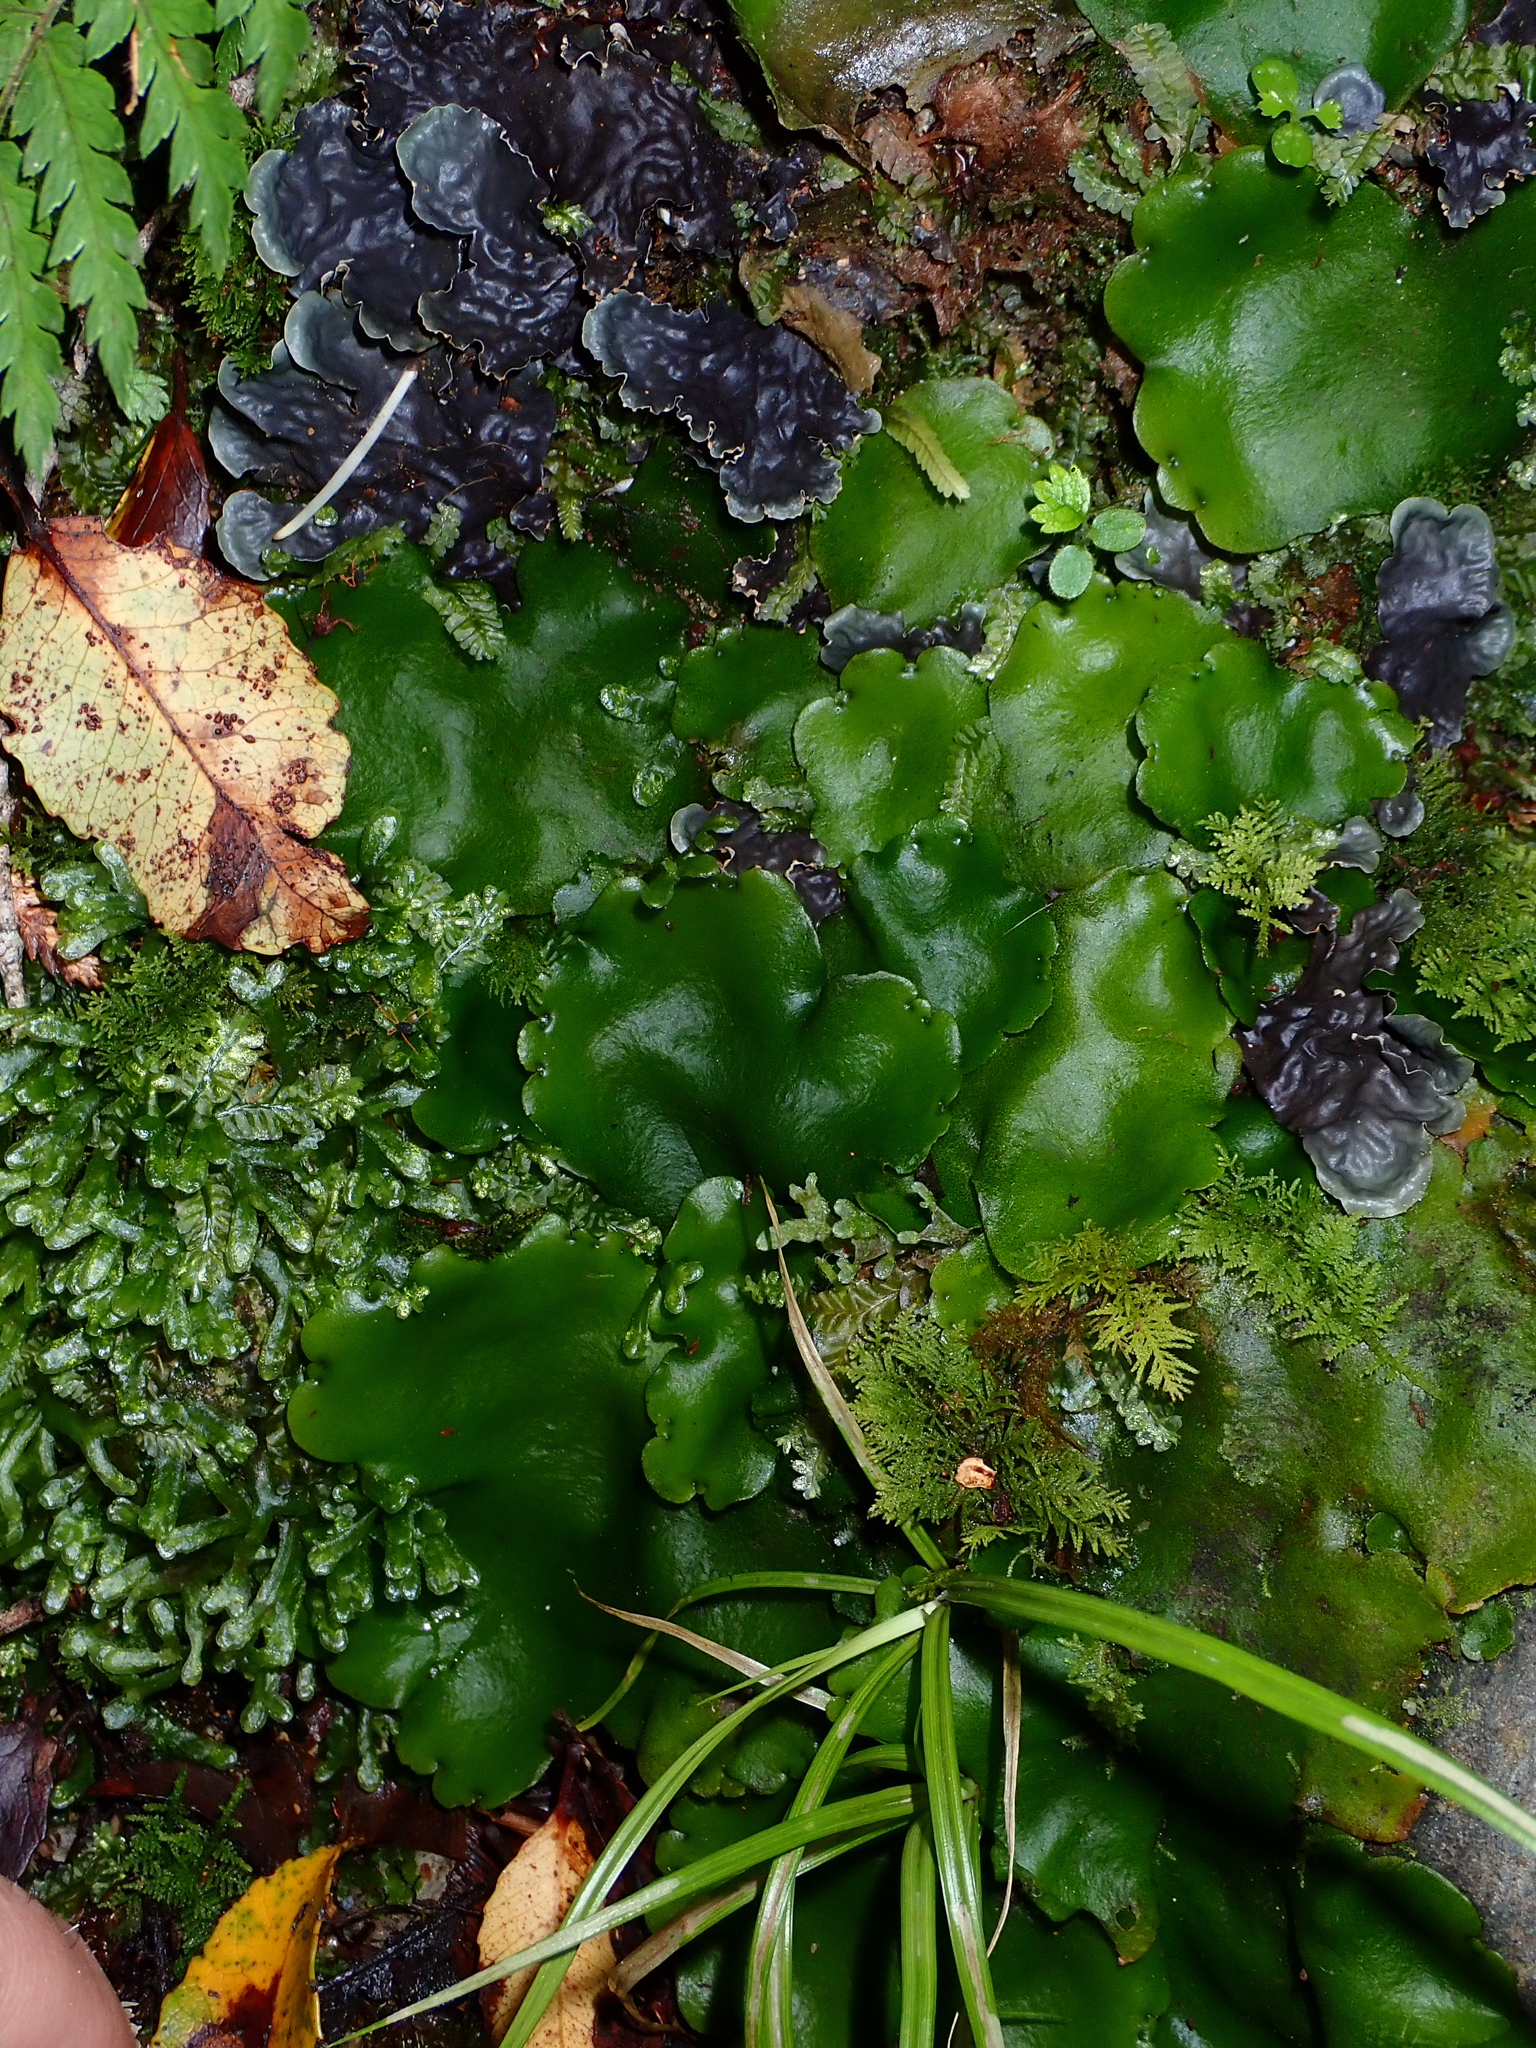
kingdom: Plantae
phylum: Marchantiophyta
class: Marchantiopsida
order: Marchantiales
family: Monocleaceae
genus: Monoclea
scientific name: Monoclea forsteri
